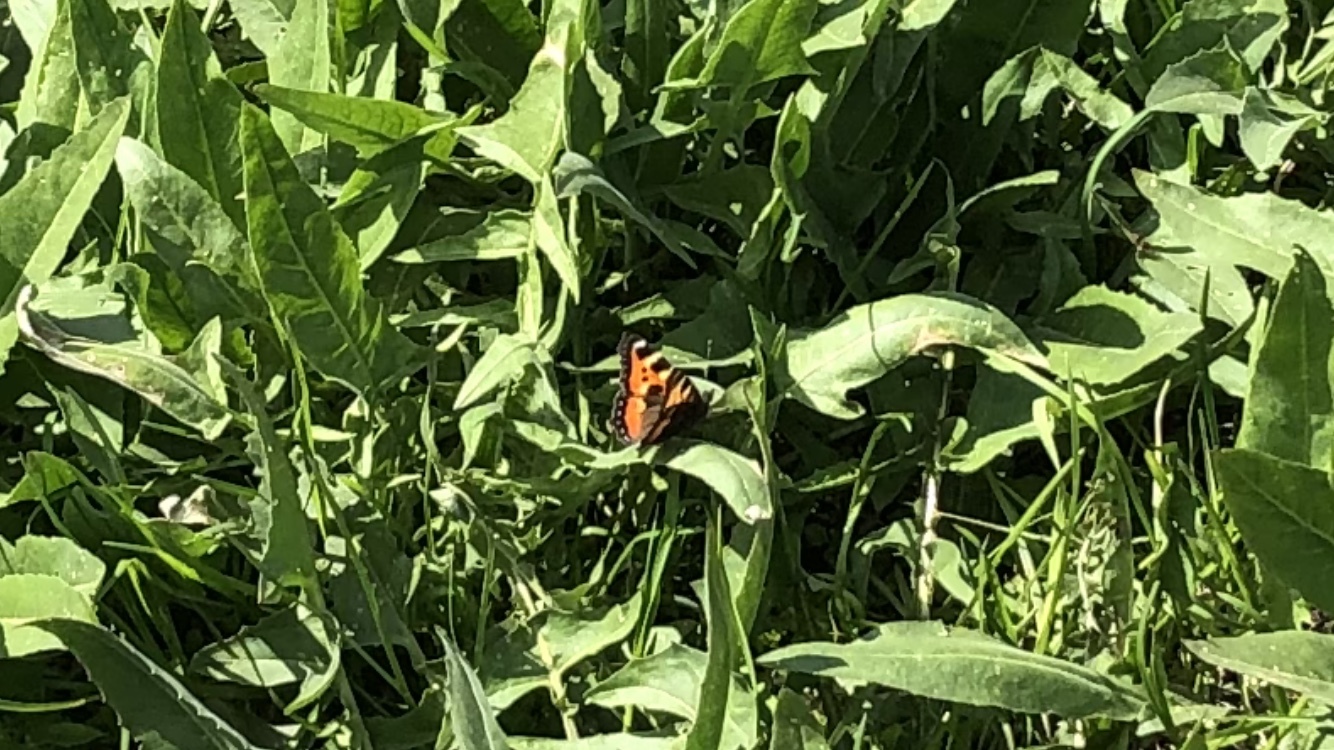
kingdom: Animalia
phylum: Arthropoda
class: Insecta
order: Lepidoptera
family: Nymphalidae
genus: Aglais
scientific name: Aglais urticae
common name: Small tortoiseshell
